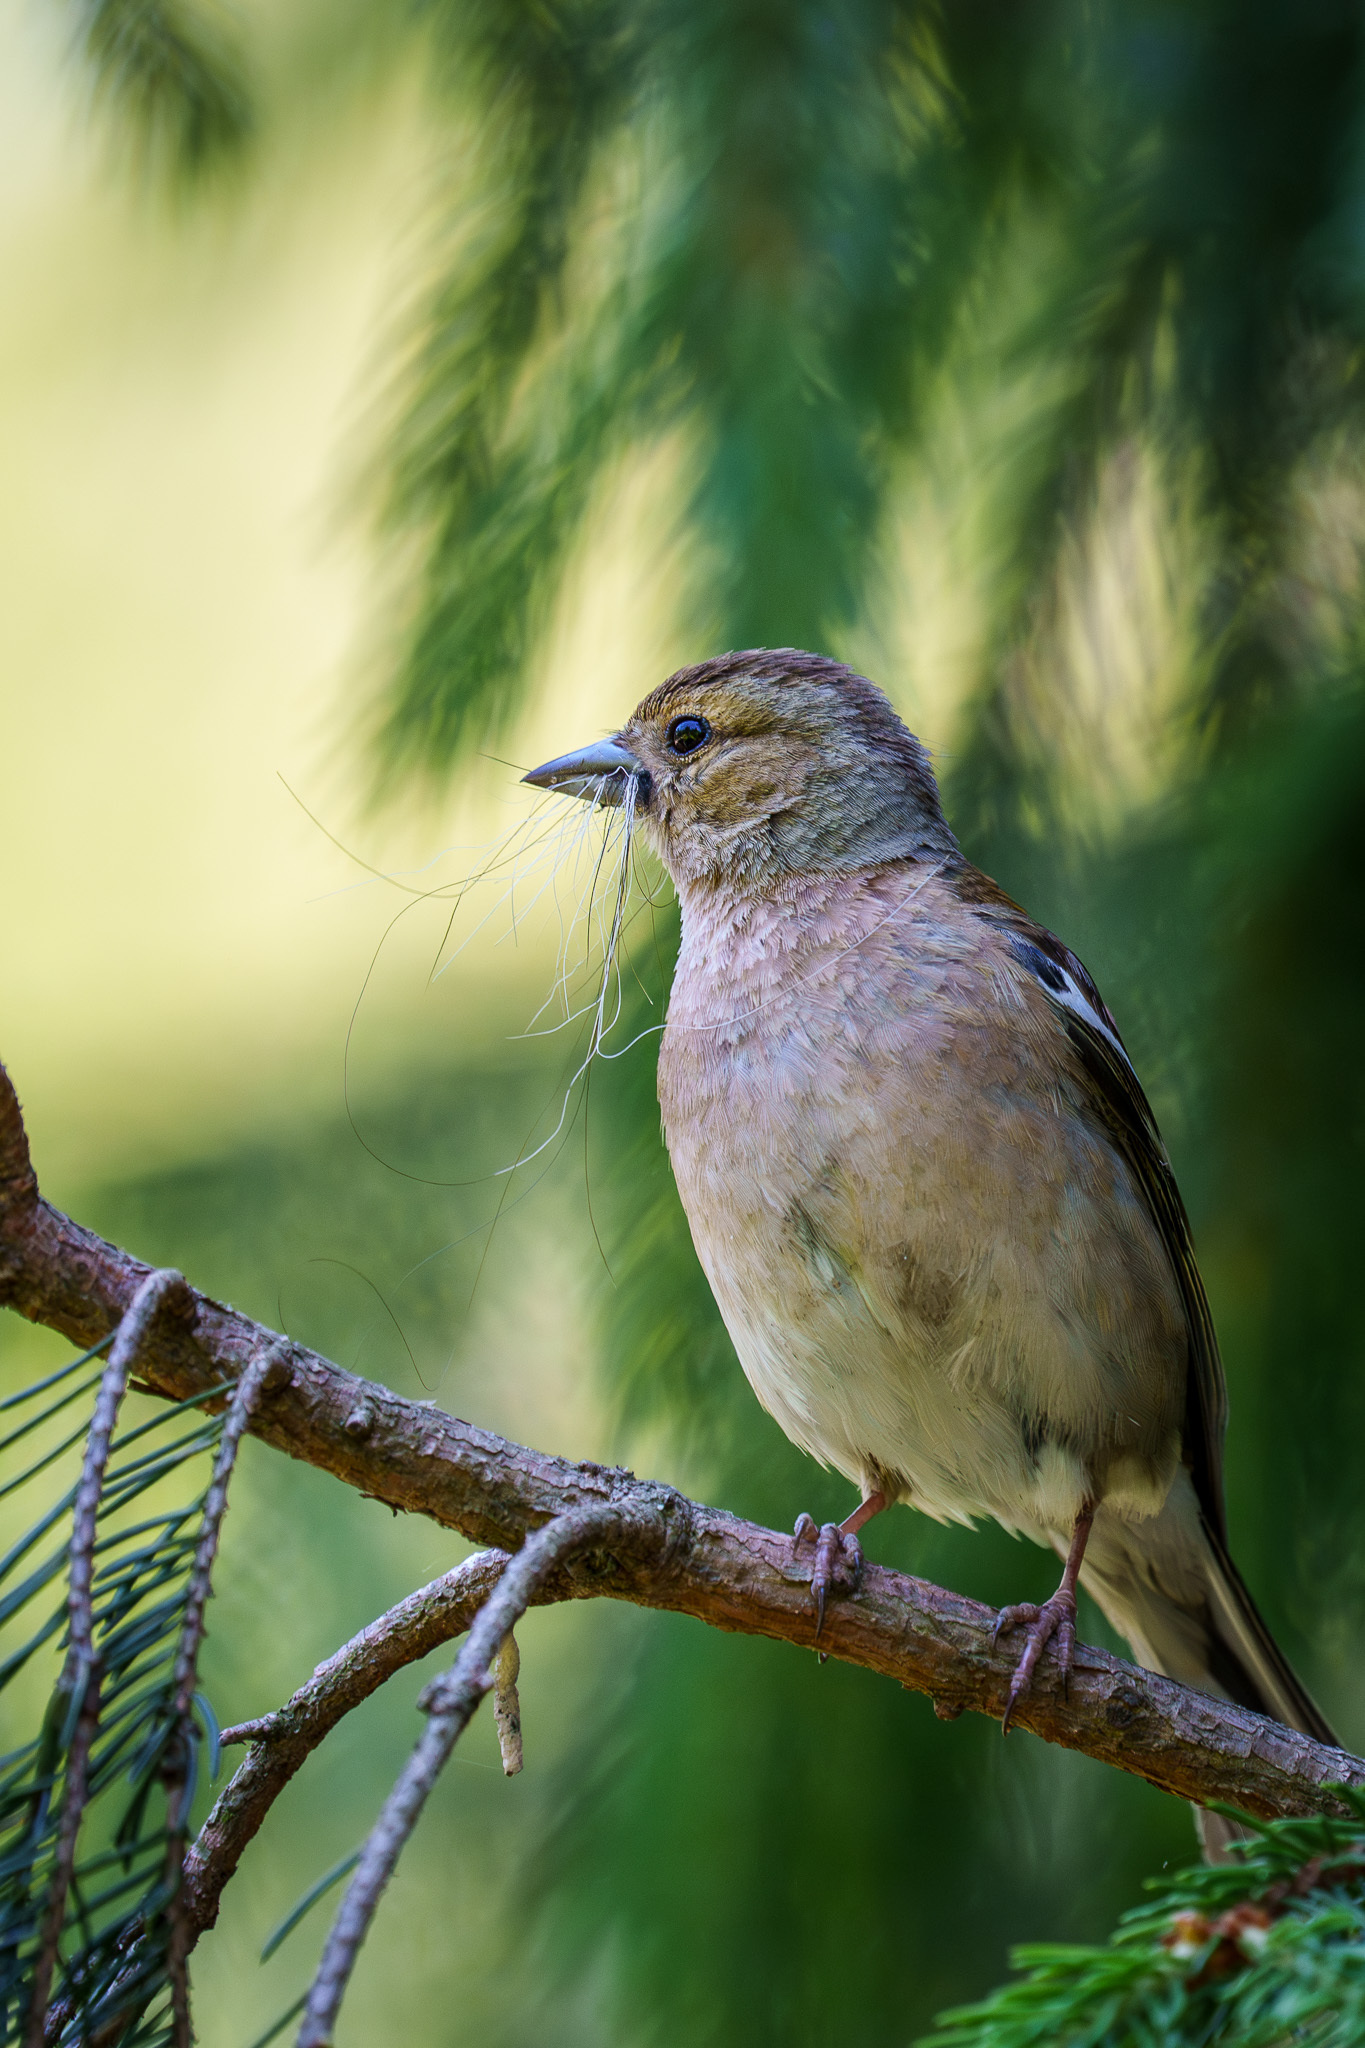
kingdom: Animalia
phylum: Chordata
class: Aves
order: Passeriformes
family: Fringillidae
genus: Fringilla
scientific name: Fringilla coelebs
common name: Common chaffinch
